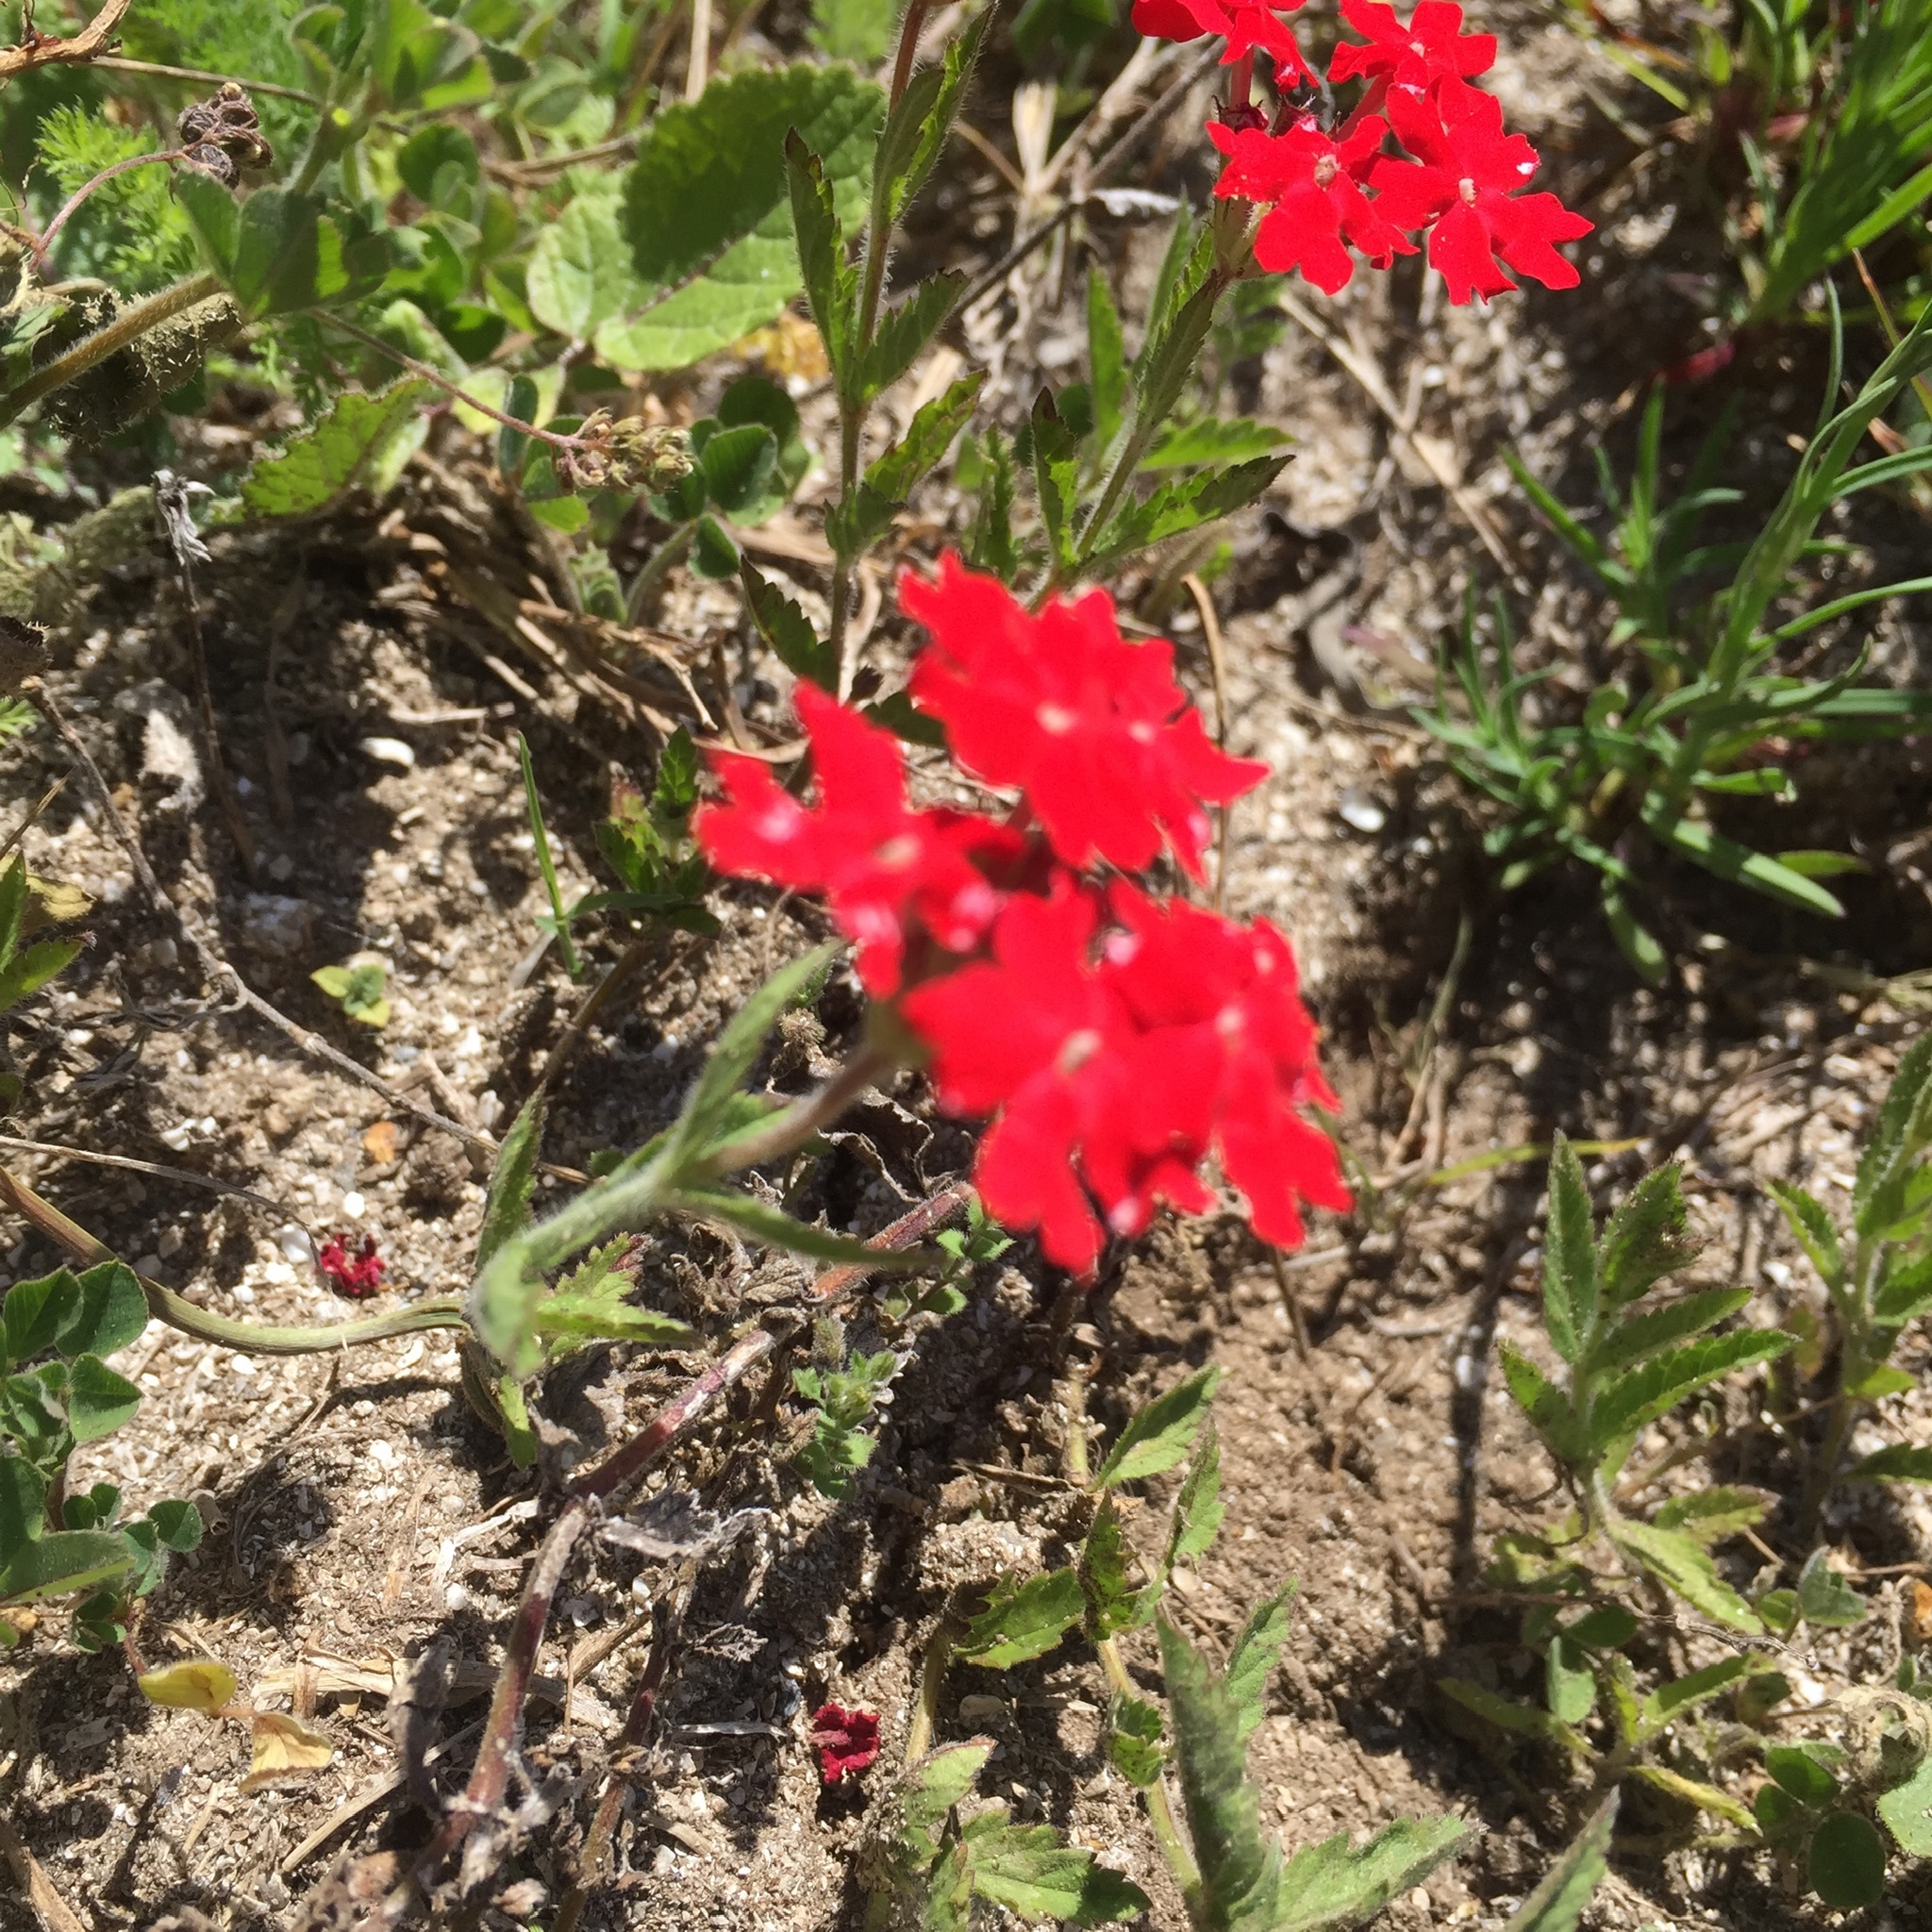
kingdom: Plantae
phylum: Tracheophyta
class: Magnoliopsida
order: Lamiales
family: Verbenaceae
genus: Verbena
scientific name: Verbena peruviana
